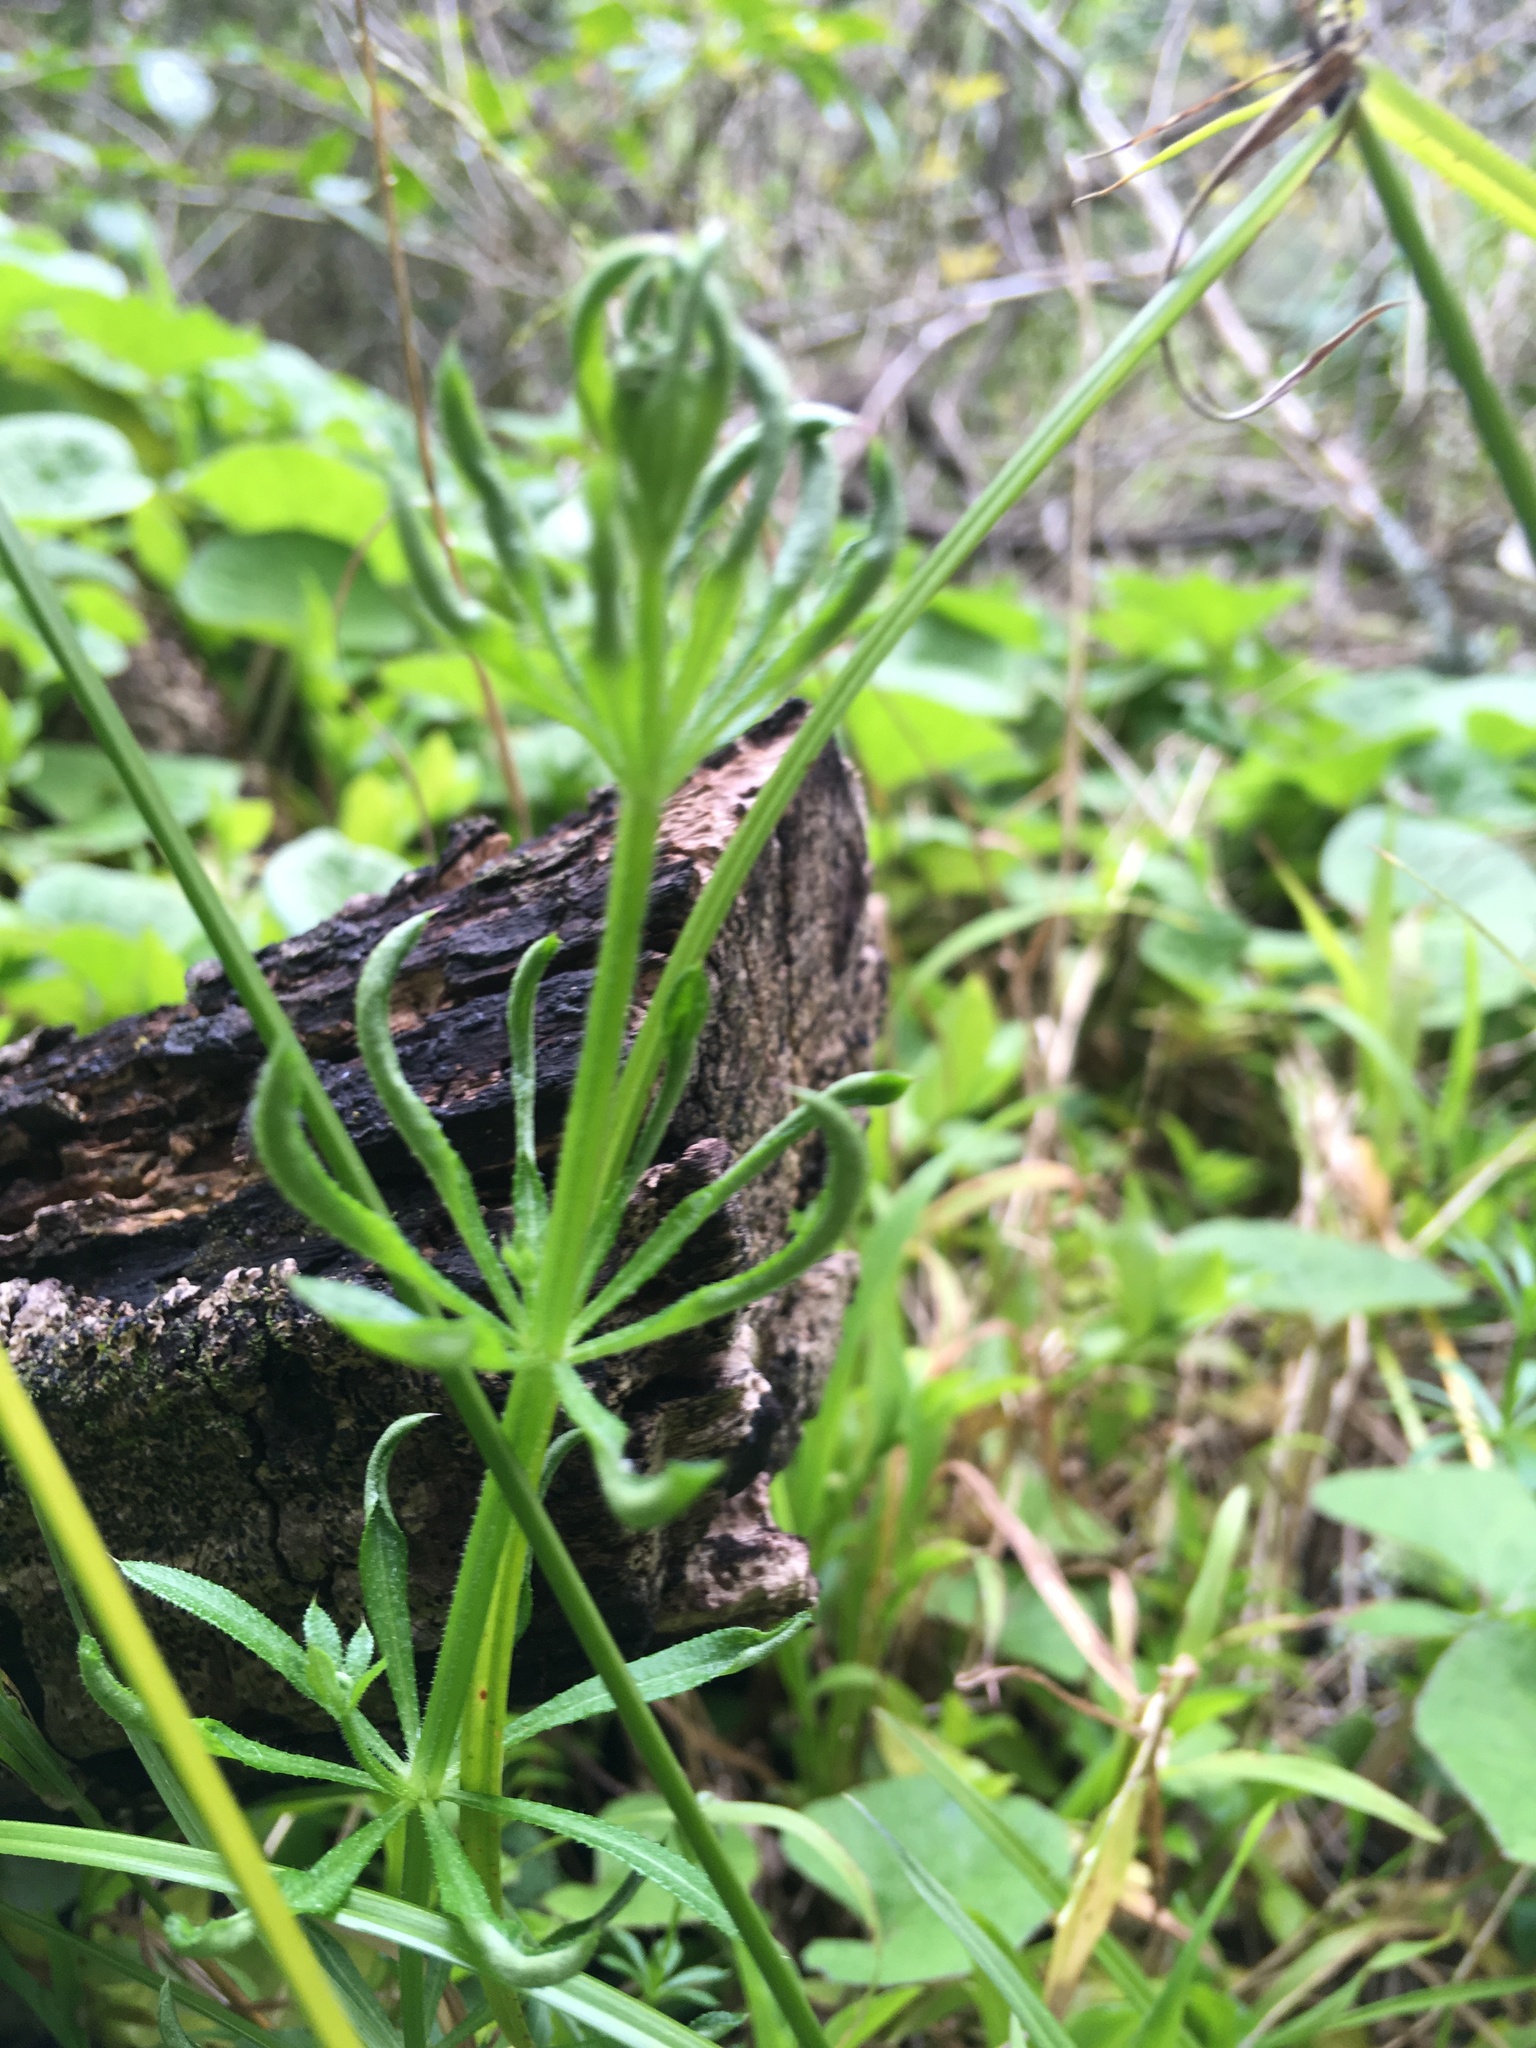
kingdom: Plantae
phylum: Tracheophyta
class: Magnoliopsida
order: Gentianales
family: Rubiaceae
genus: Galium
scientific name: Galium aparine
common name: Cleavers
